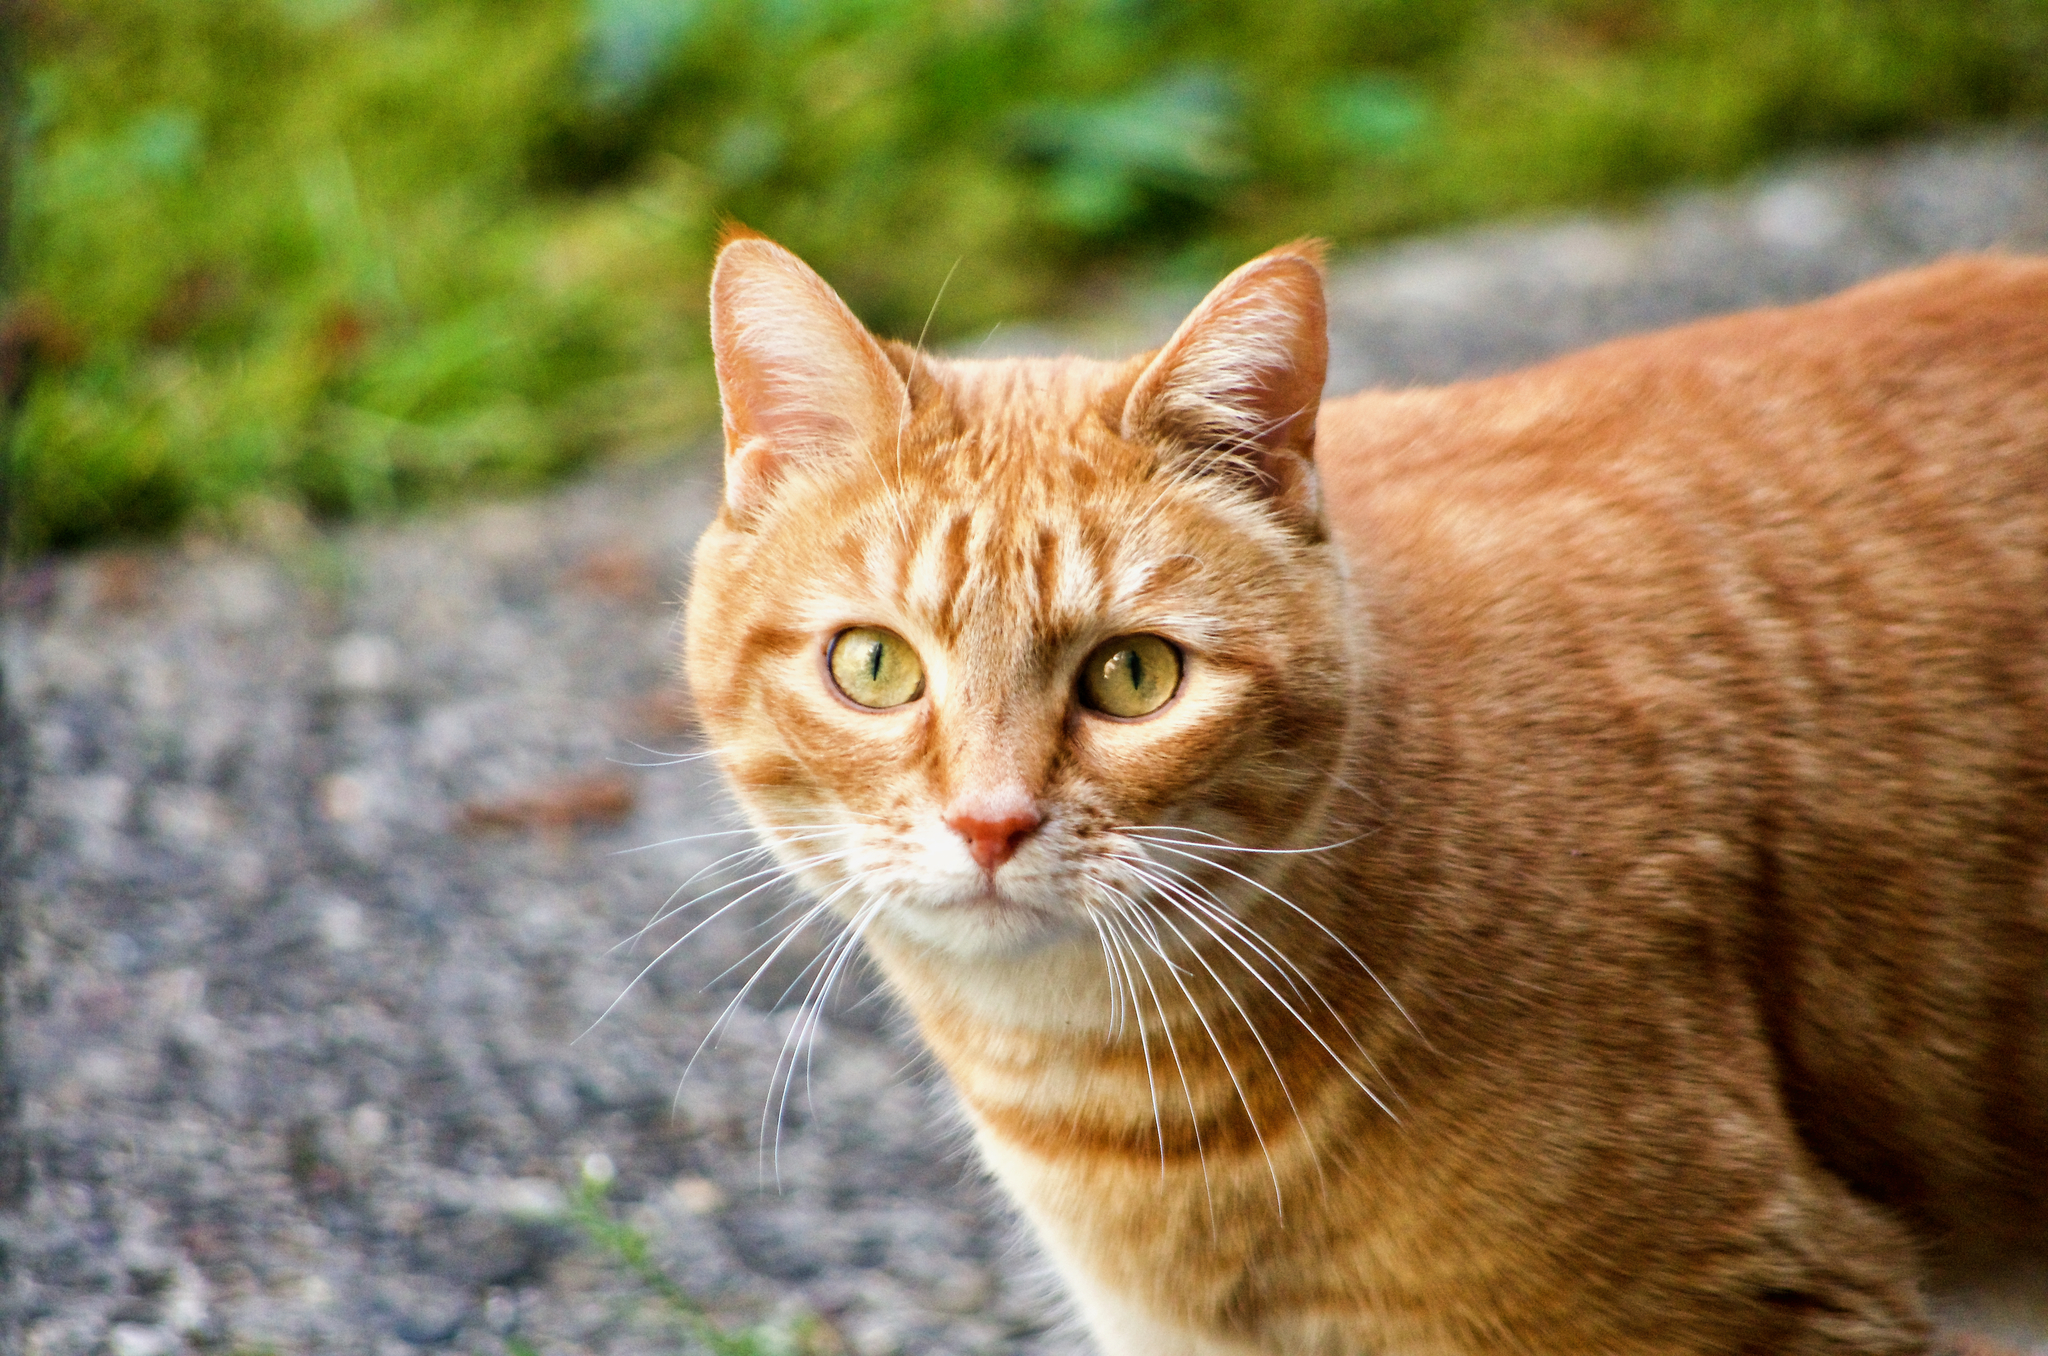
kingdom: Animalia
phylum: Chordata
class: Mammalia
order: Carnivora
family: Felidae
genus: Felis
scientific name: Felis catus
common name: Domestic cat
